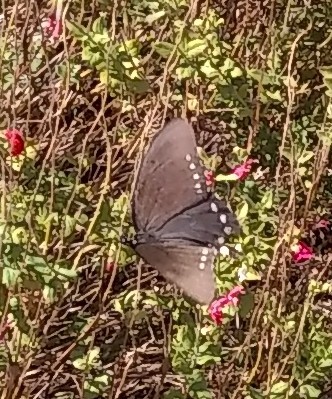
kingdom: Animalia
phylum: Arthropoda
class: Insecta
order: Lepidoptera
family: Papilionidae
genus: Battus
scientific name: Battus philenor
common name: Pipevine swallowtail
